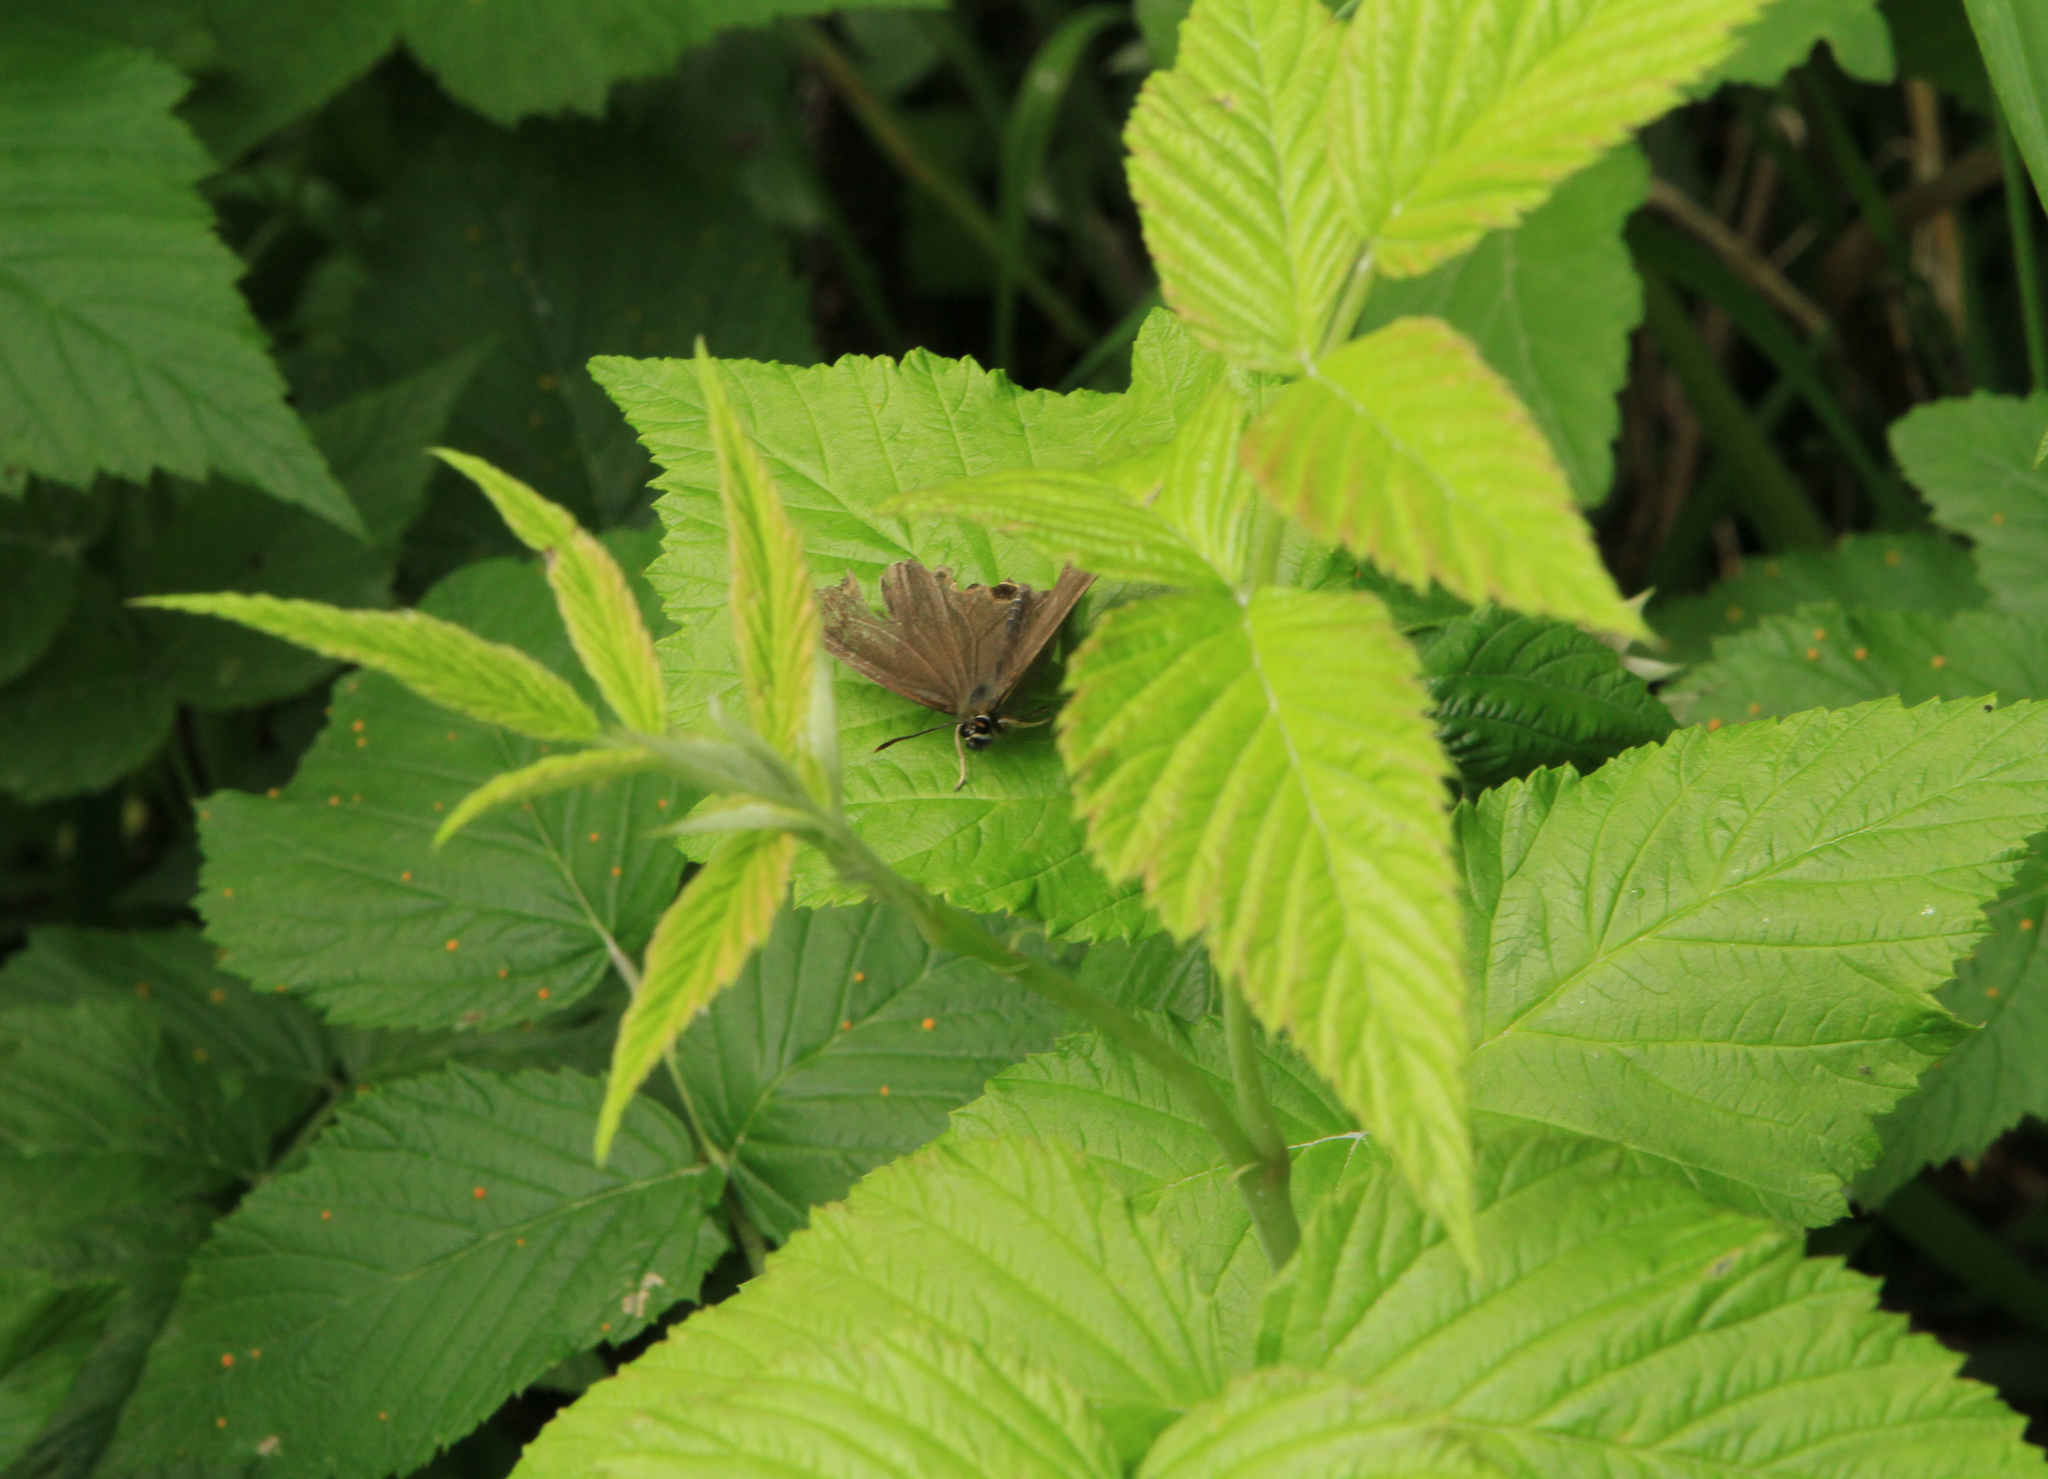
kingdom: Plantae
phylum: Tracheophyta
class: Magnoliopsida
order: Rosales
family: Rosaceae
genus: Rubus
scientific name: Rubus idaeus
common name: Raspberry
